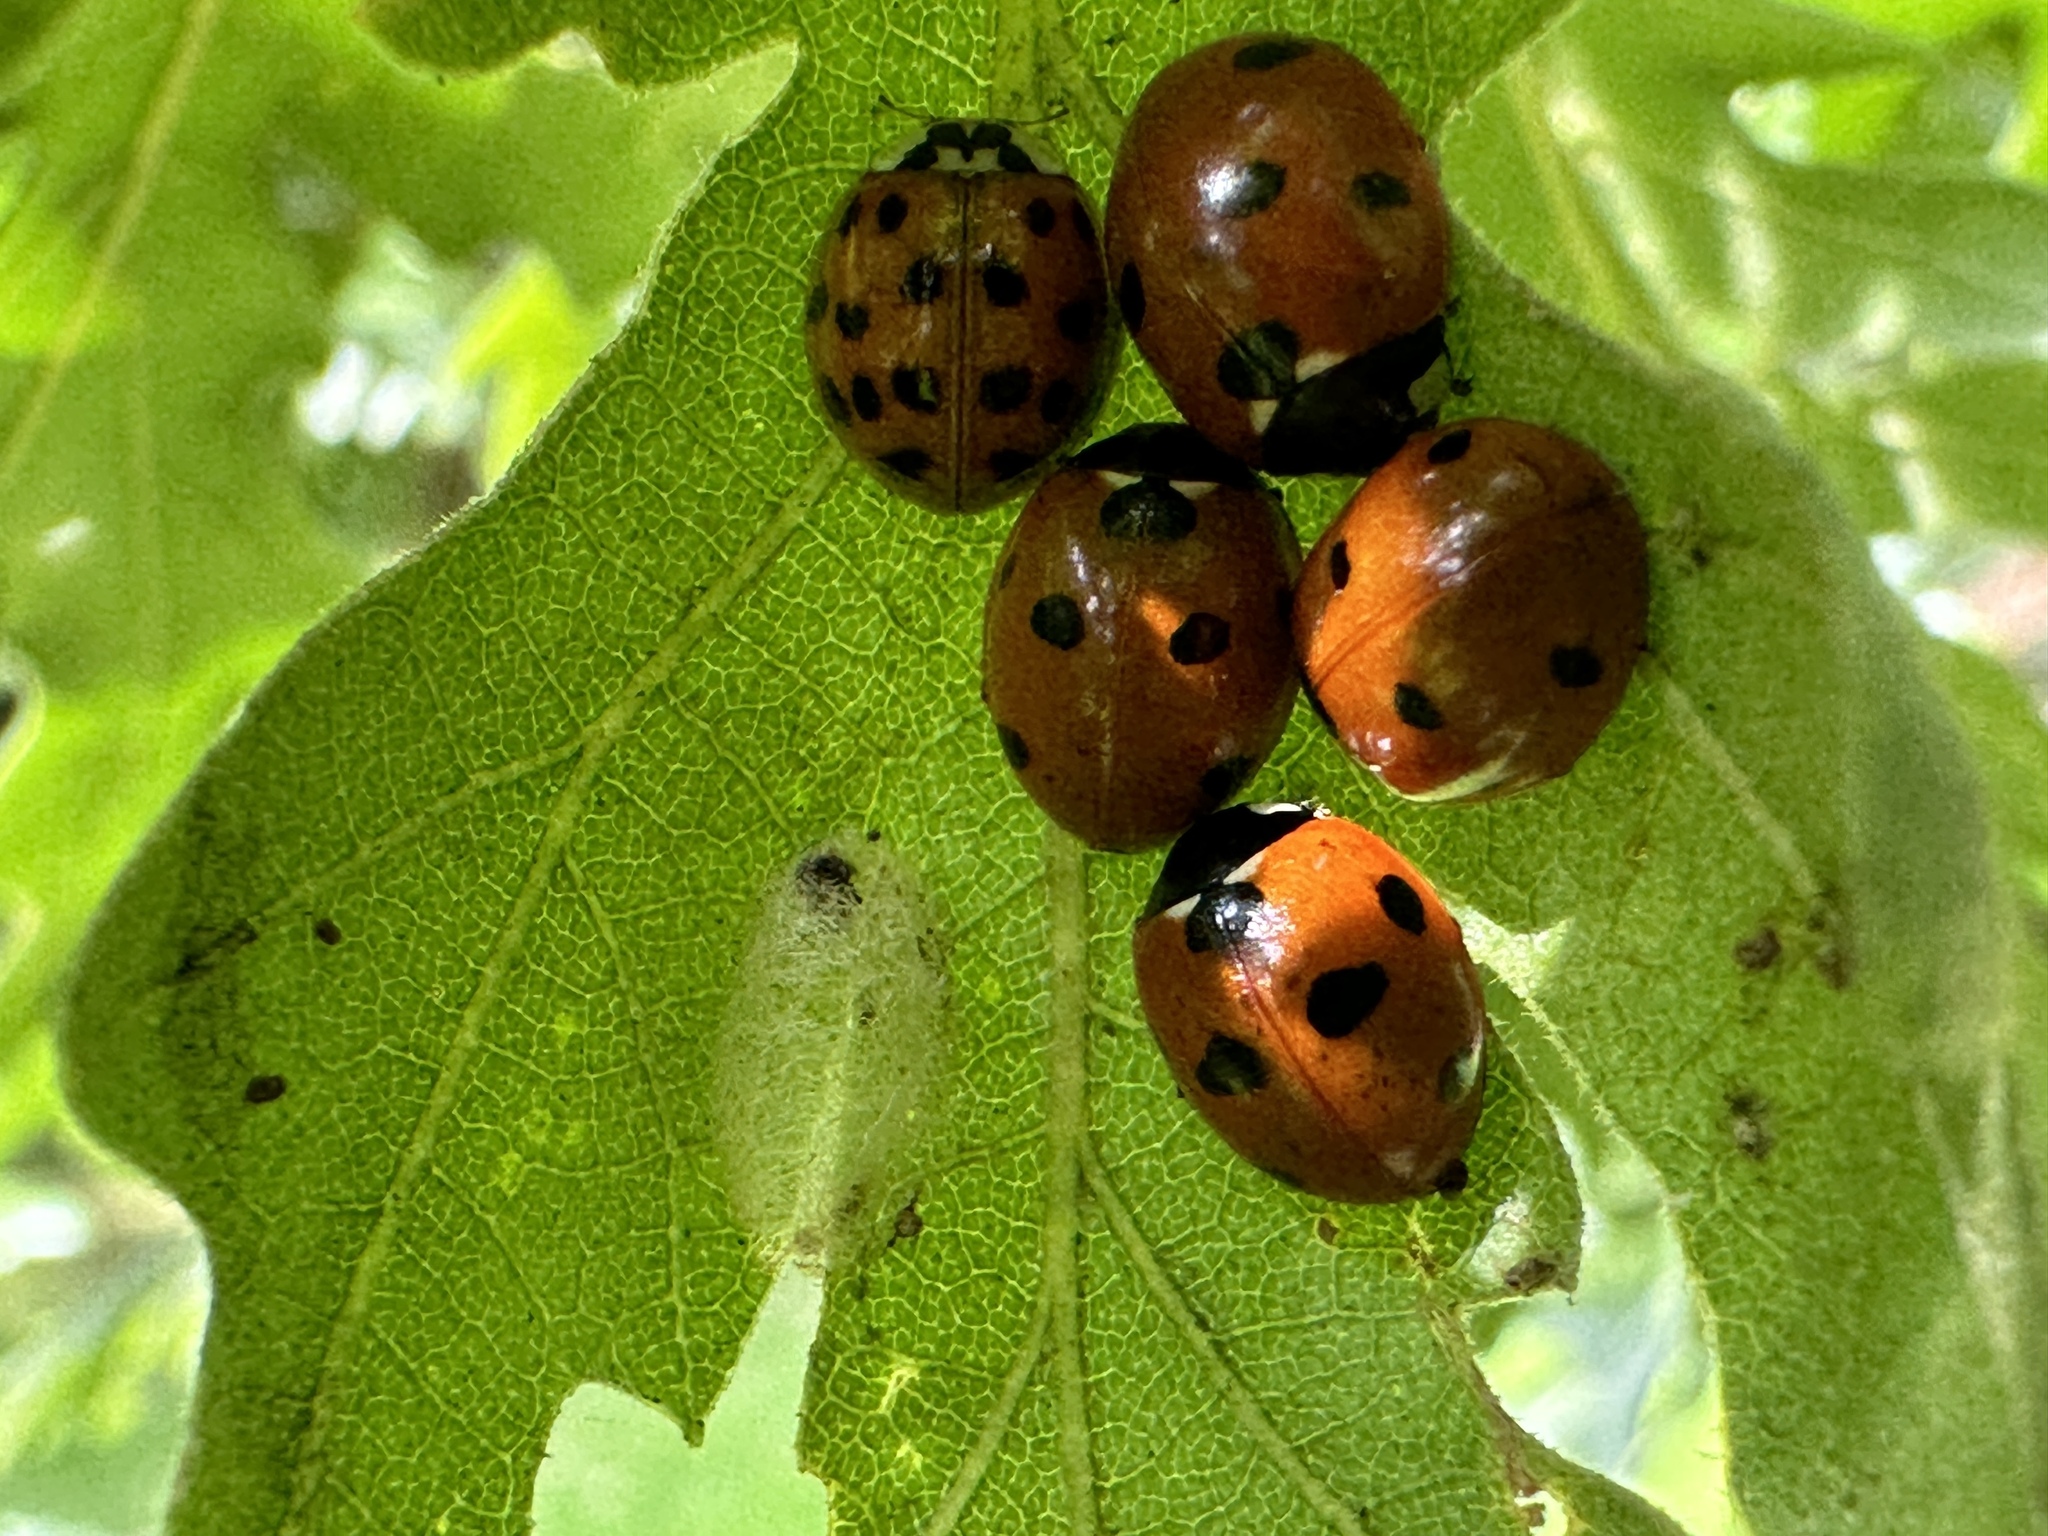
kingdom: Animalia
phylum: Arthropoda
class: Insecta
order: Coleoptera
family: Coccinellidae
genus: Coccinella
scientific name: Coccinella septempunctata
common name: Sevenspotted lady beetle
